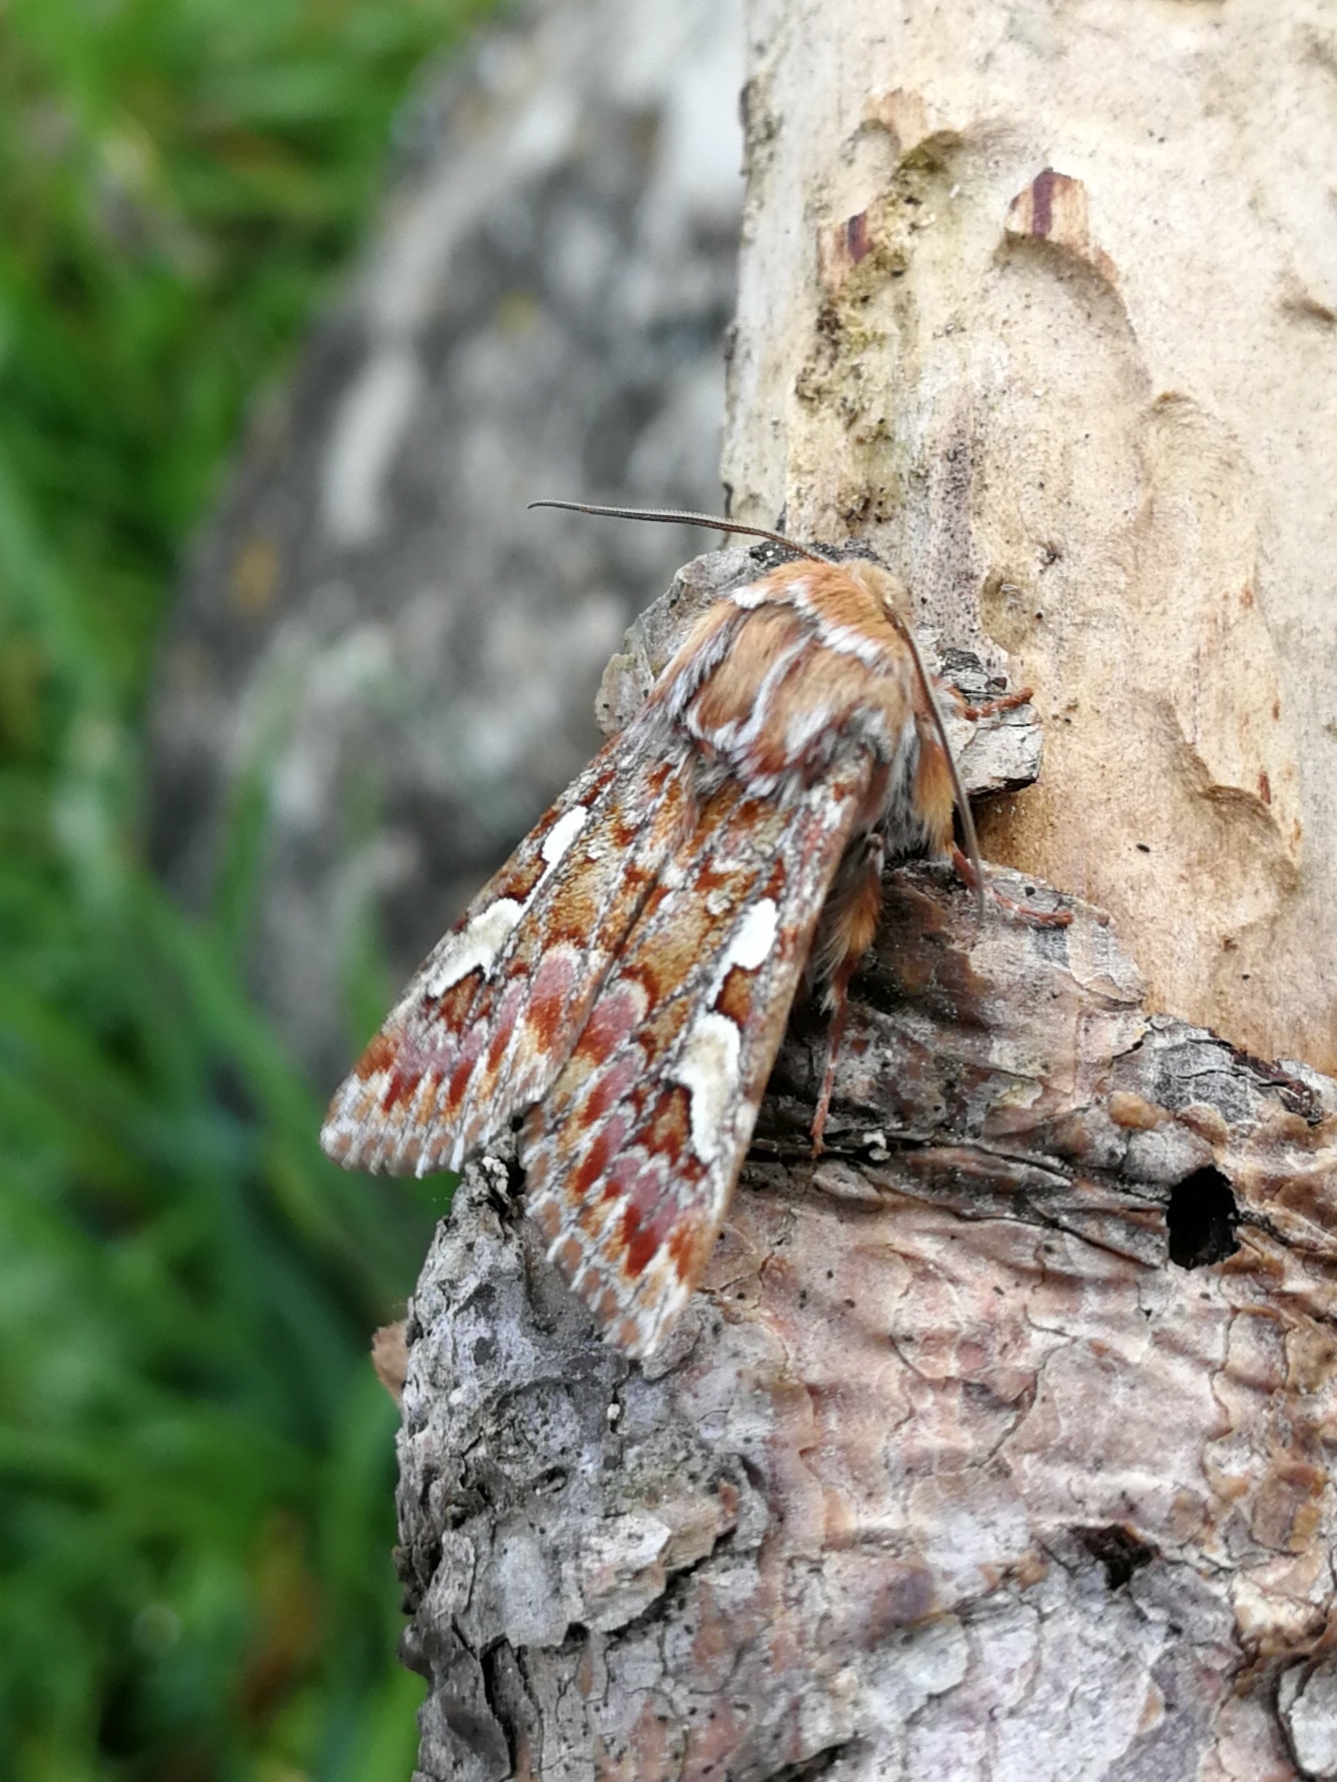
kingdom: Animalia
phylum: Arthropoda
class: Insecta
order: Lepidoptera
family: Noctuidae
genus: Panolis
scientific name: Panolis flammea
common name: Pine beauty
